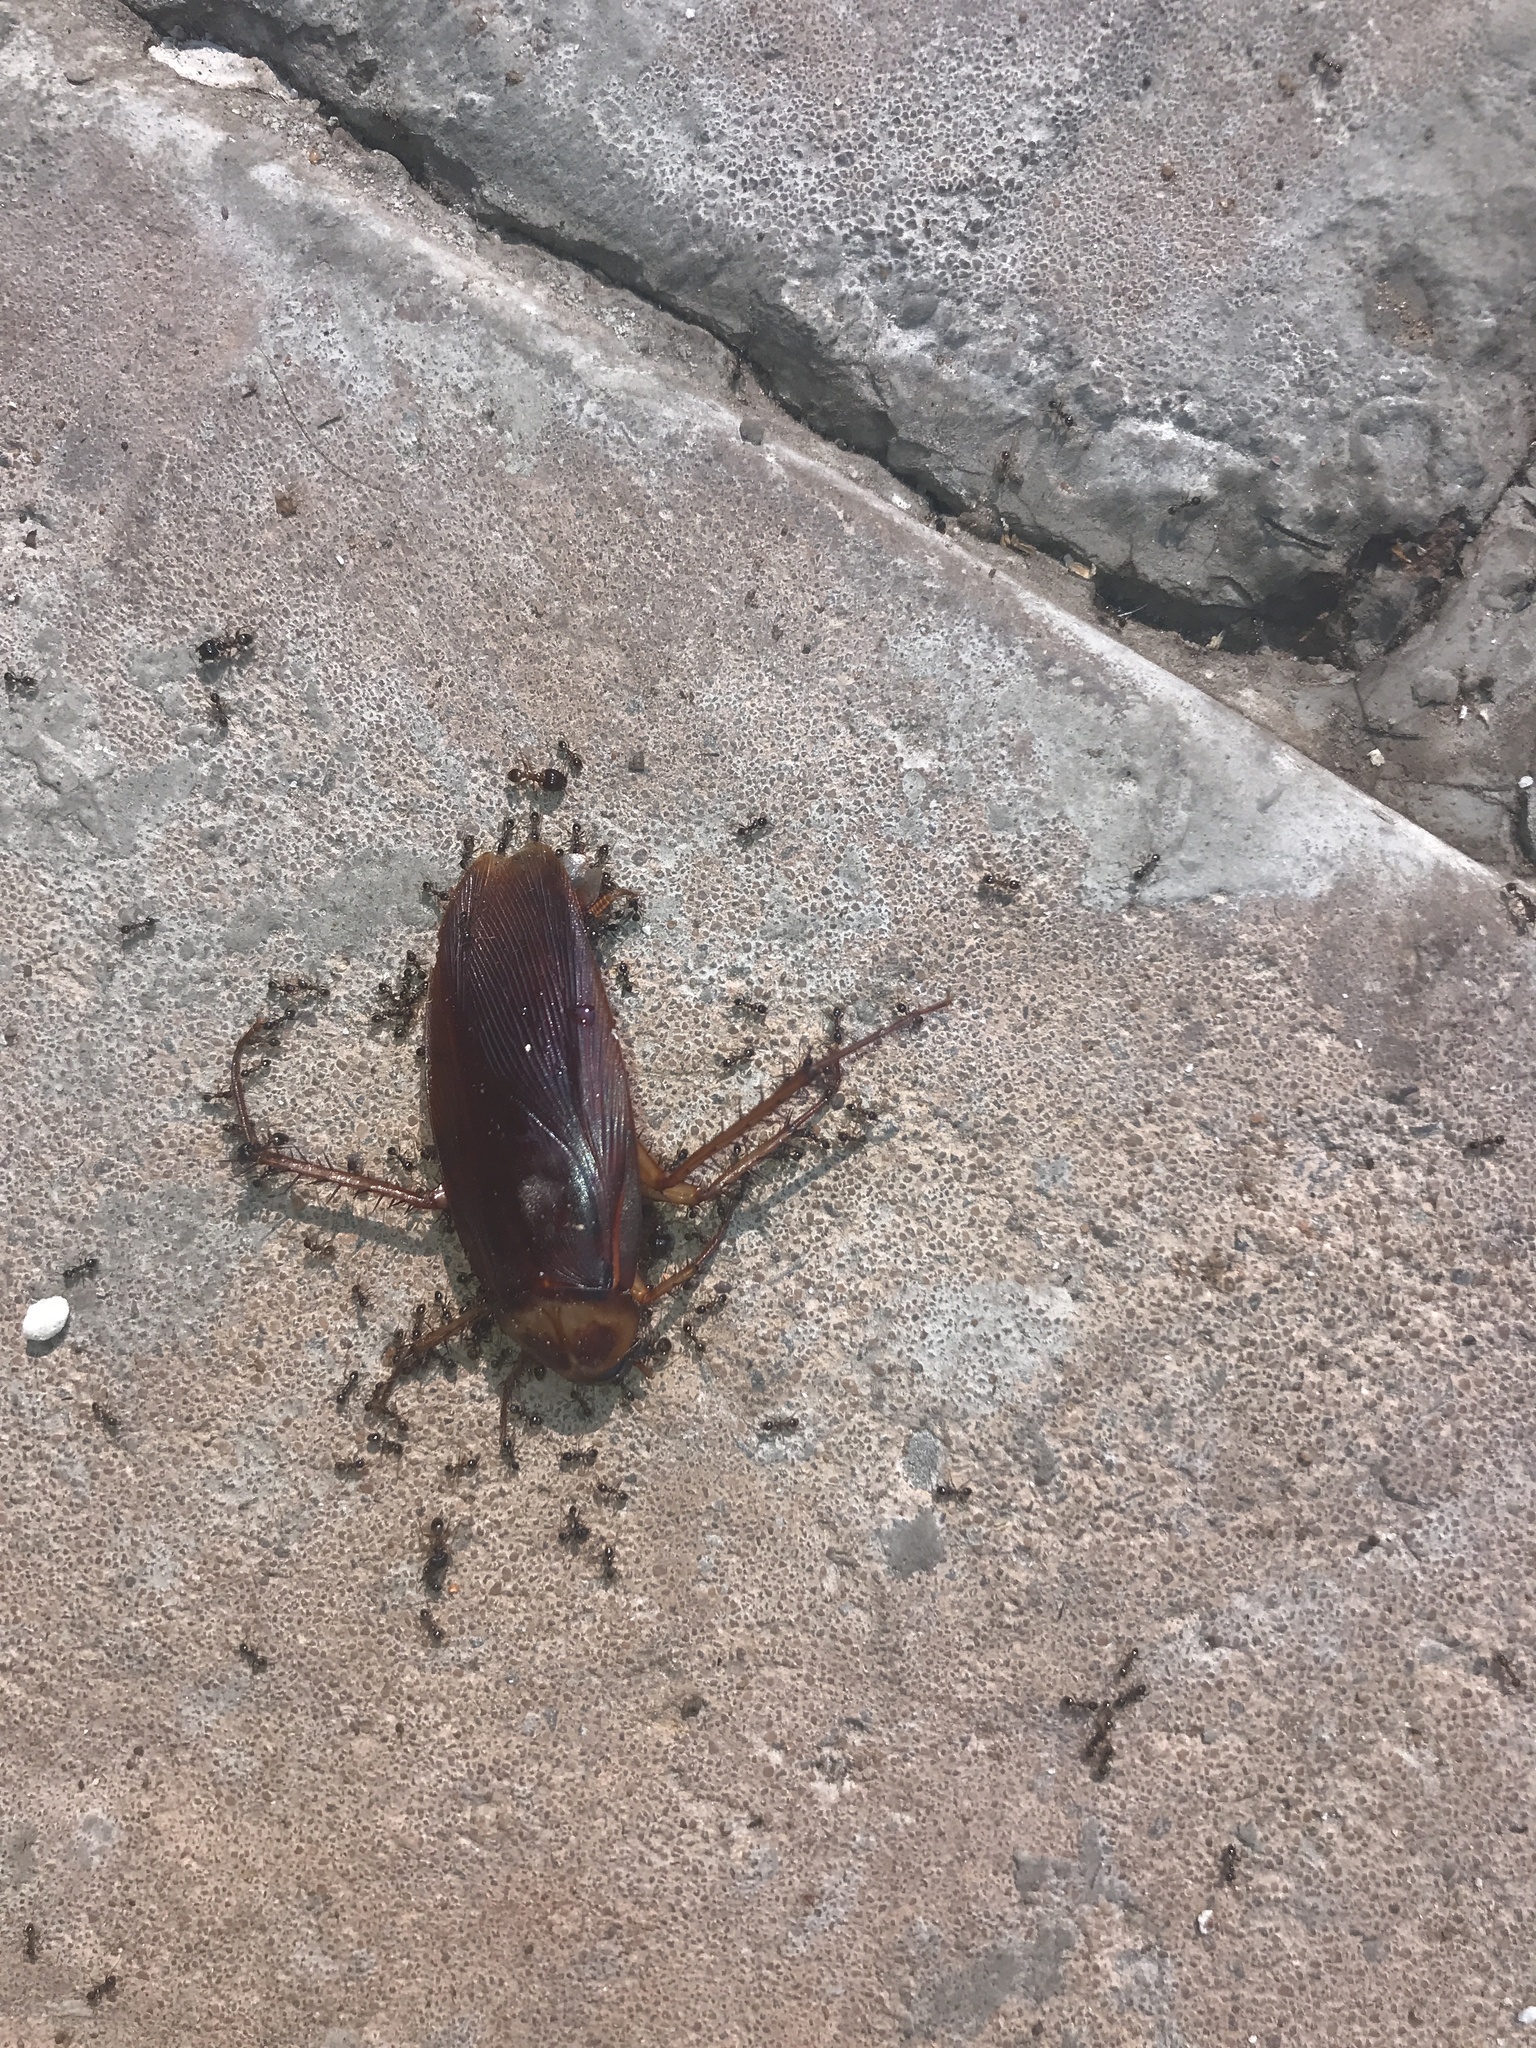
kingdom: Animalia
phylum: Arthropoda
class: Insecta
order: Blattodea
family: Blattidae
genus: Periplaneta
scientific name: Periplaneta americana
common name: American cockroach
